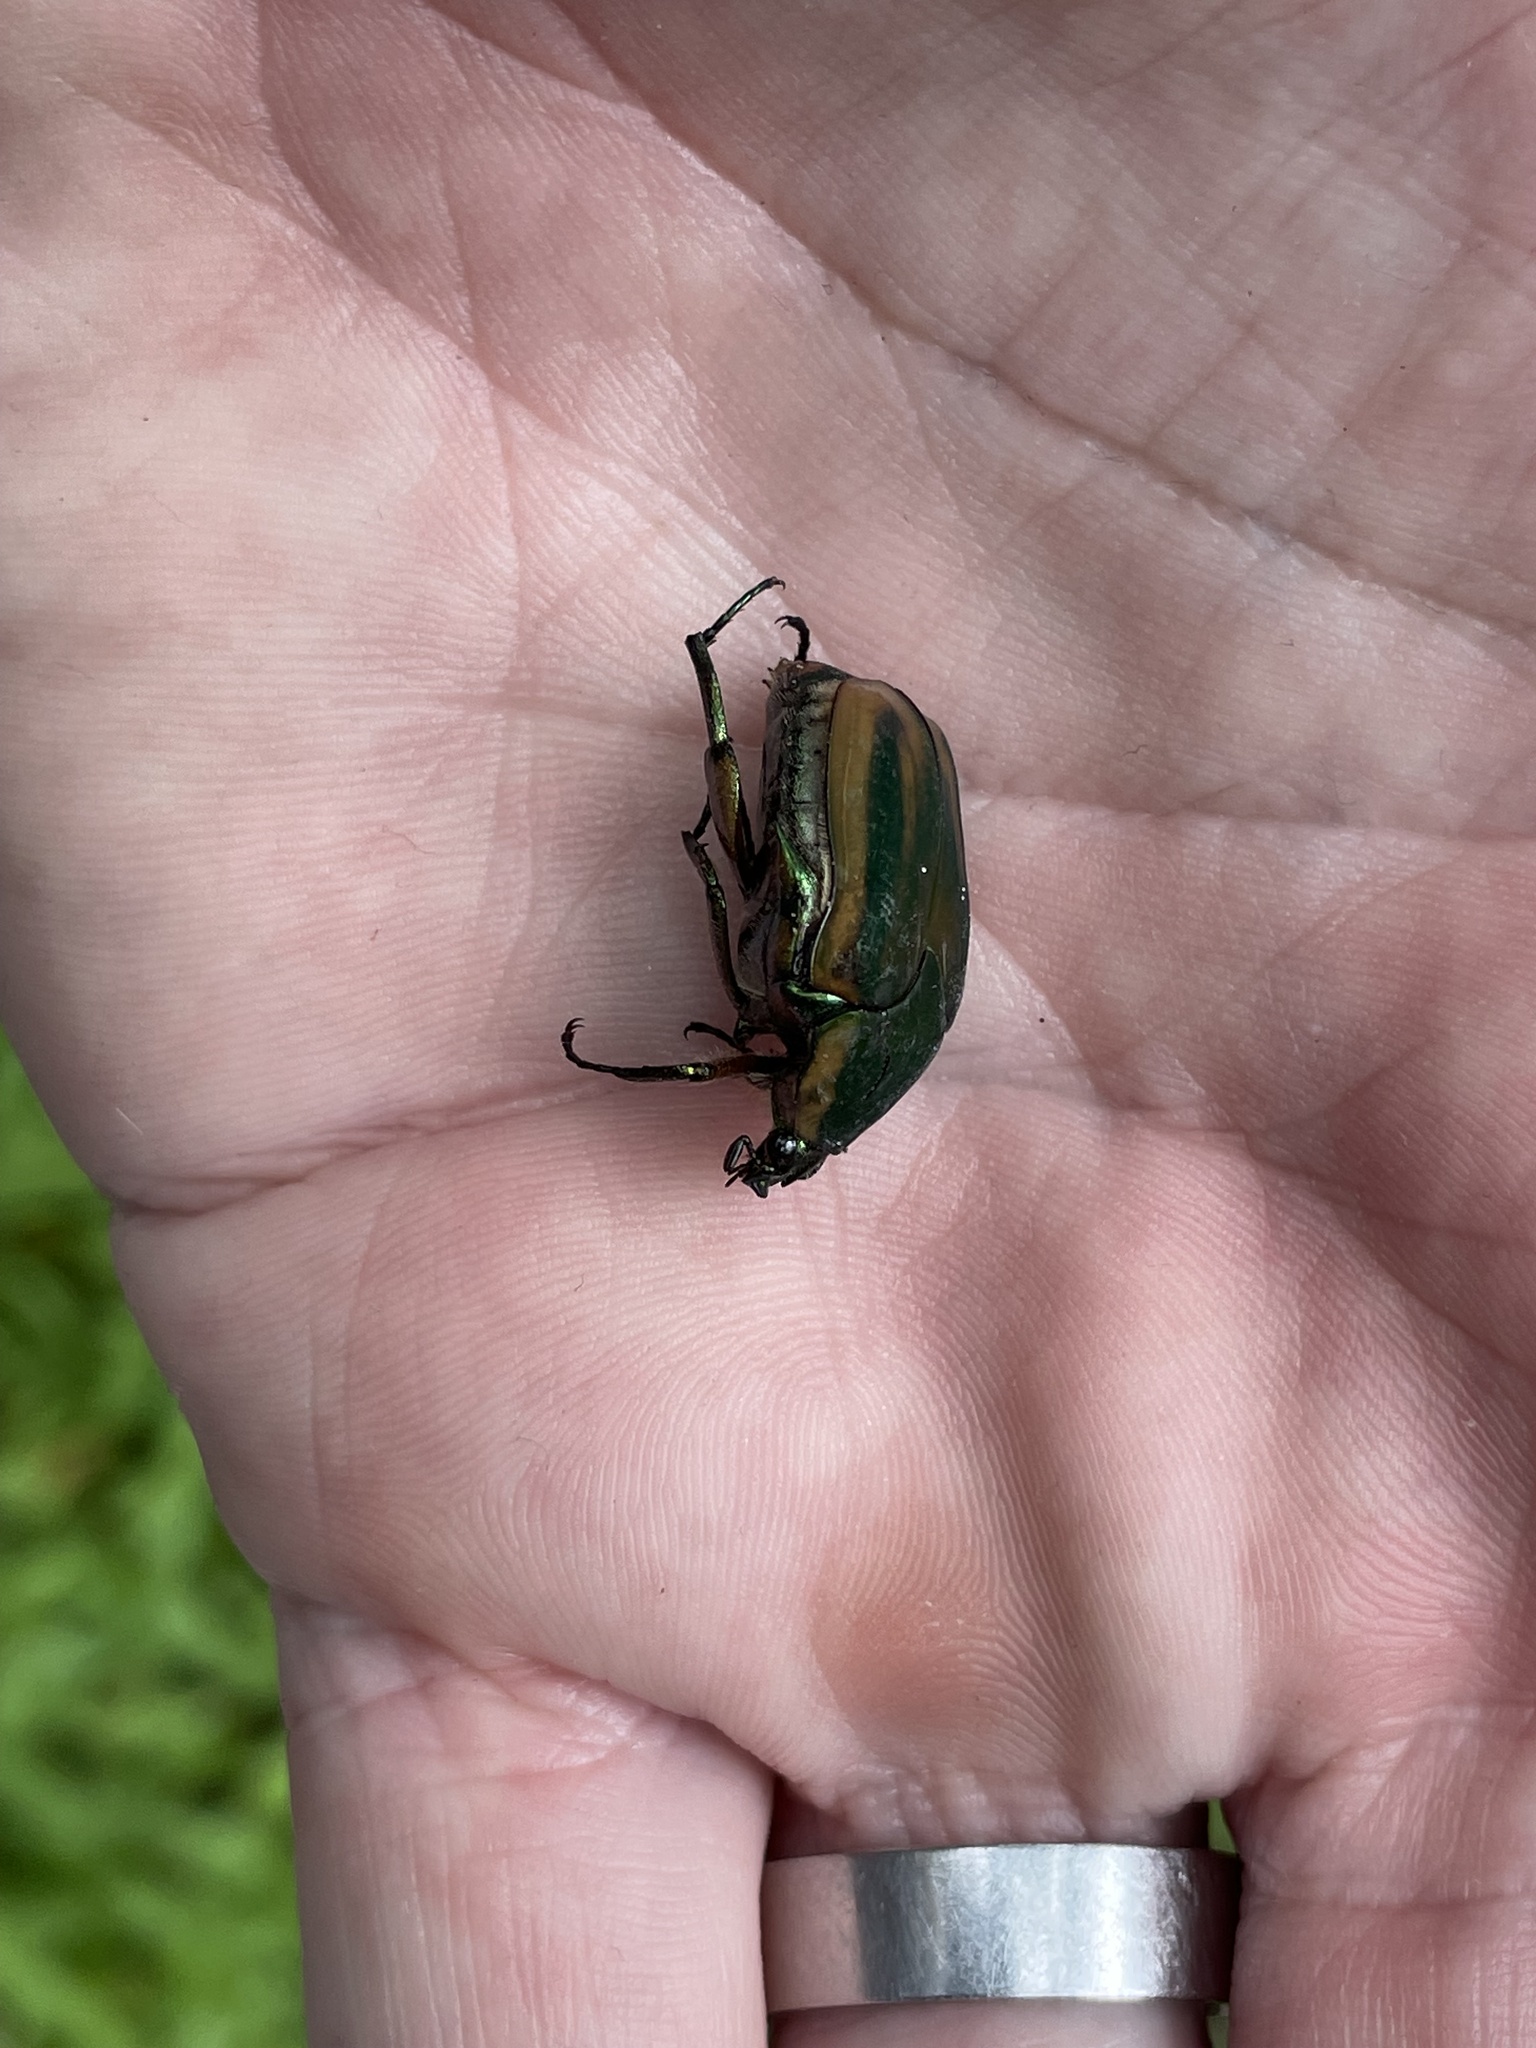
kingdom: Animalia
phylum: Arthropoda
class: Insecta
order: Coleoptera
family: Scarabaeidae
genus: Cotinis
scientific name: Cotinis nitida
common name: Common green june beetle
